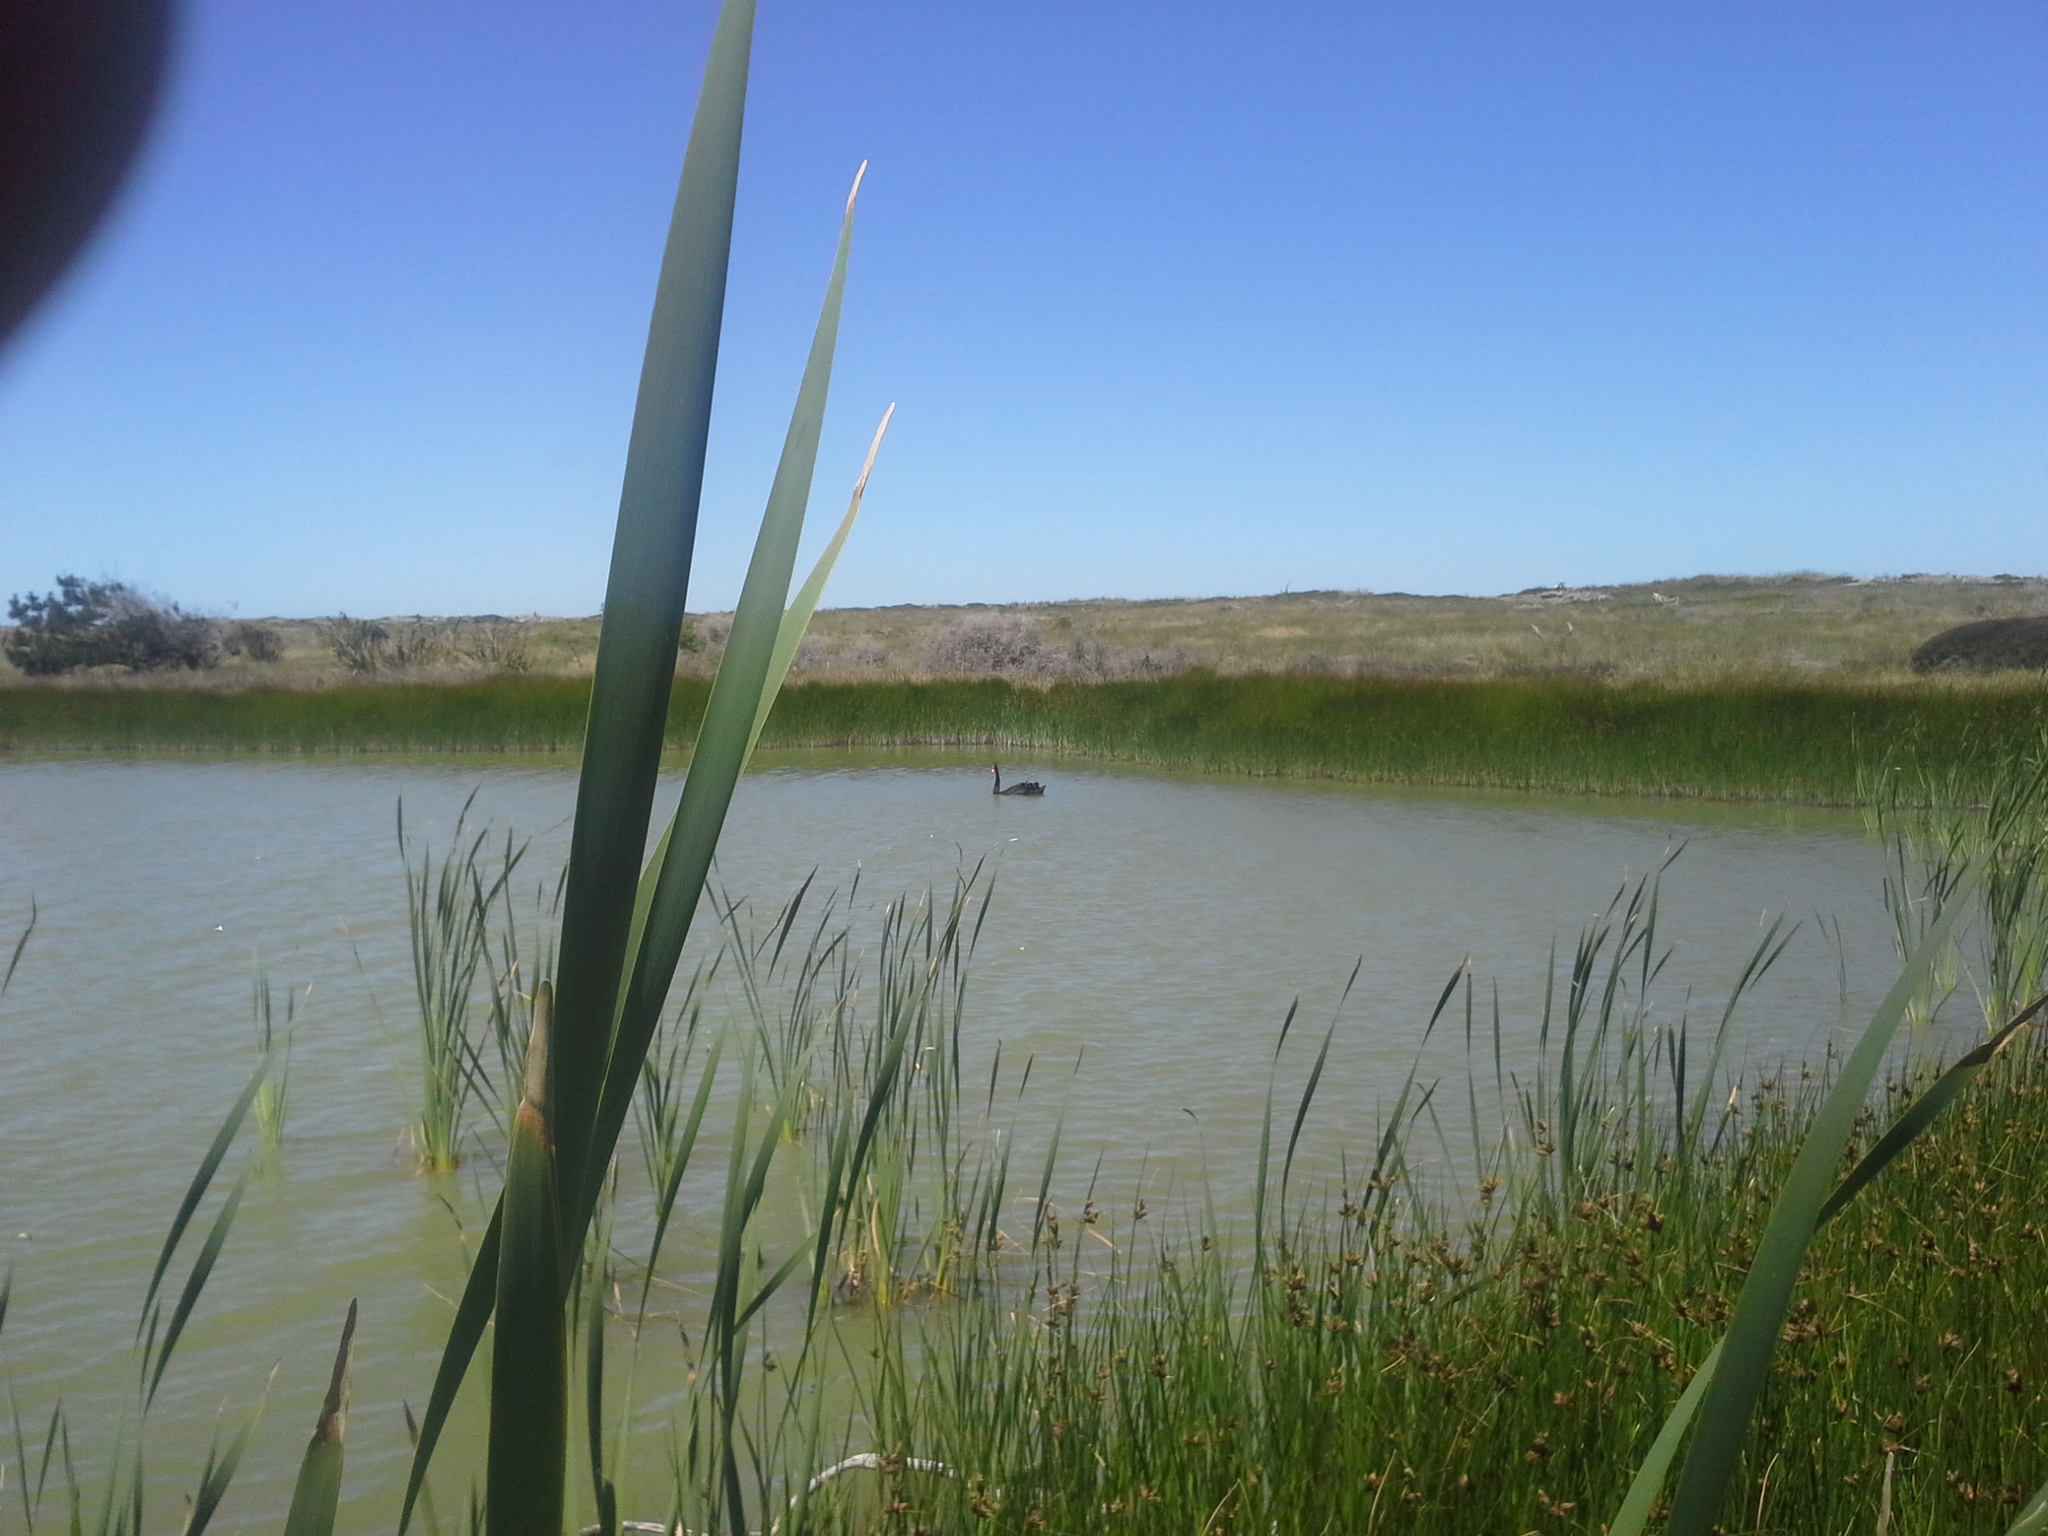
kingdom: Animalia
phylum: Chordata
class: Aves
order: Anseriformes
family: Anatidae
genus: Cygnus
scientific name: Cygnus atratus
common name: Black swan
